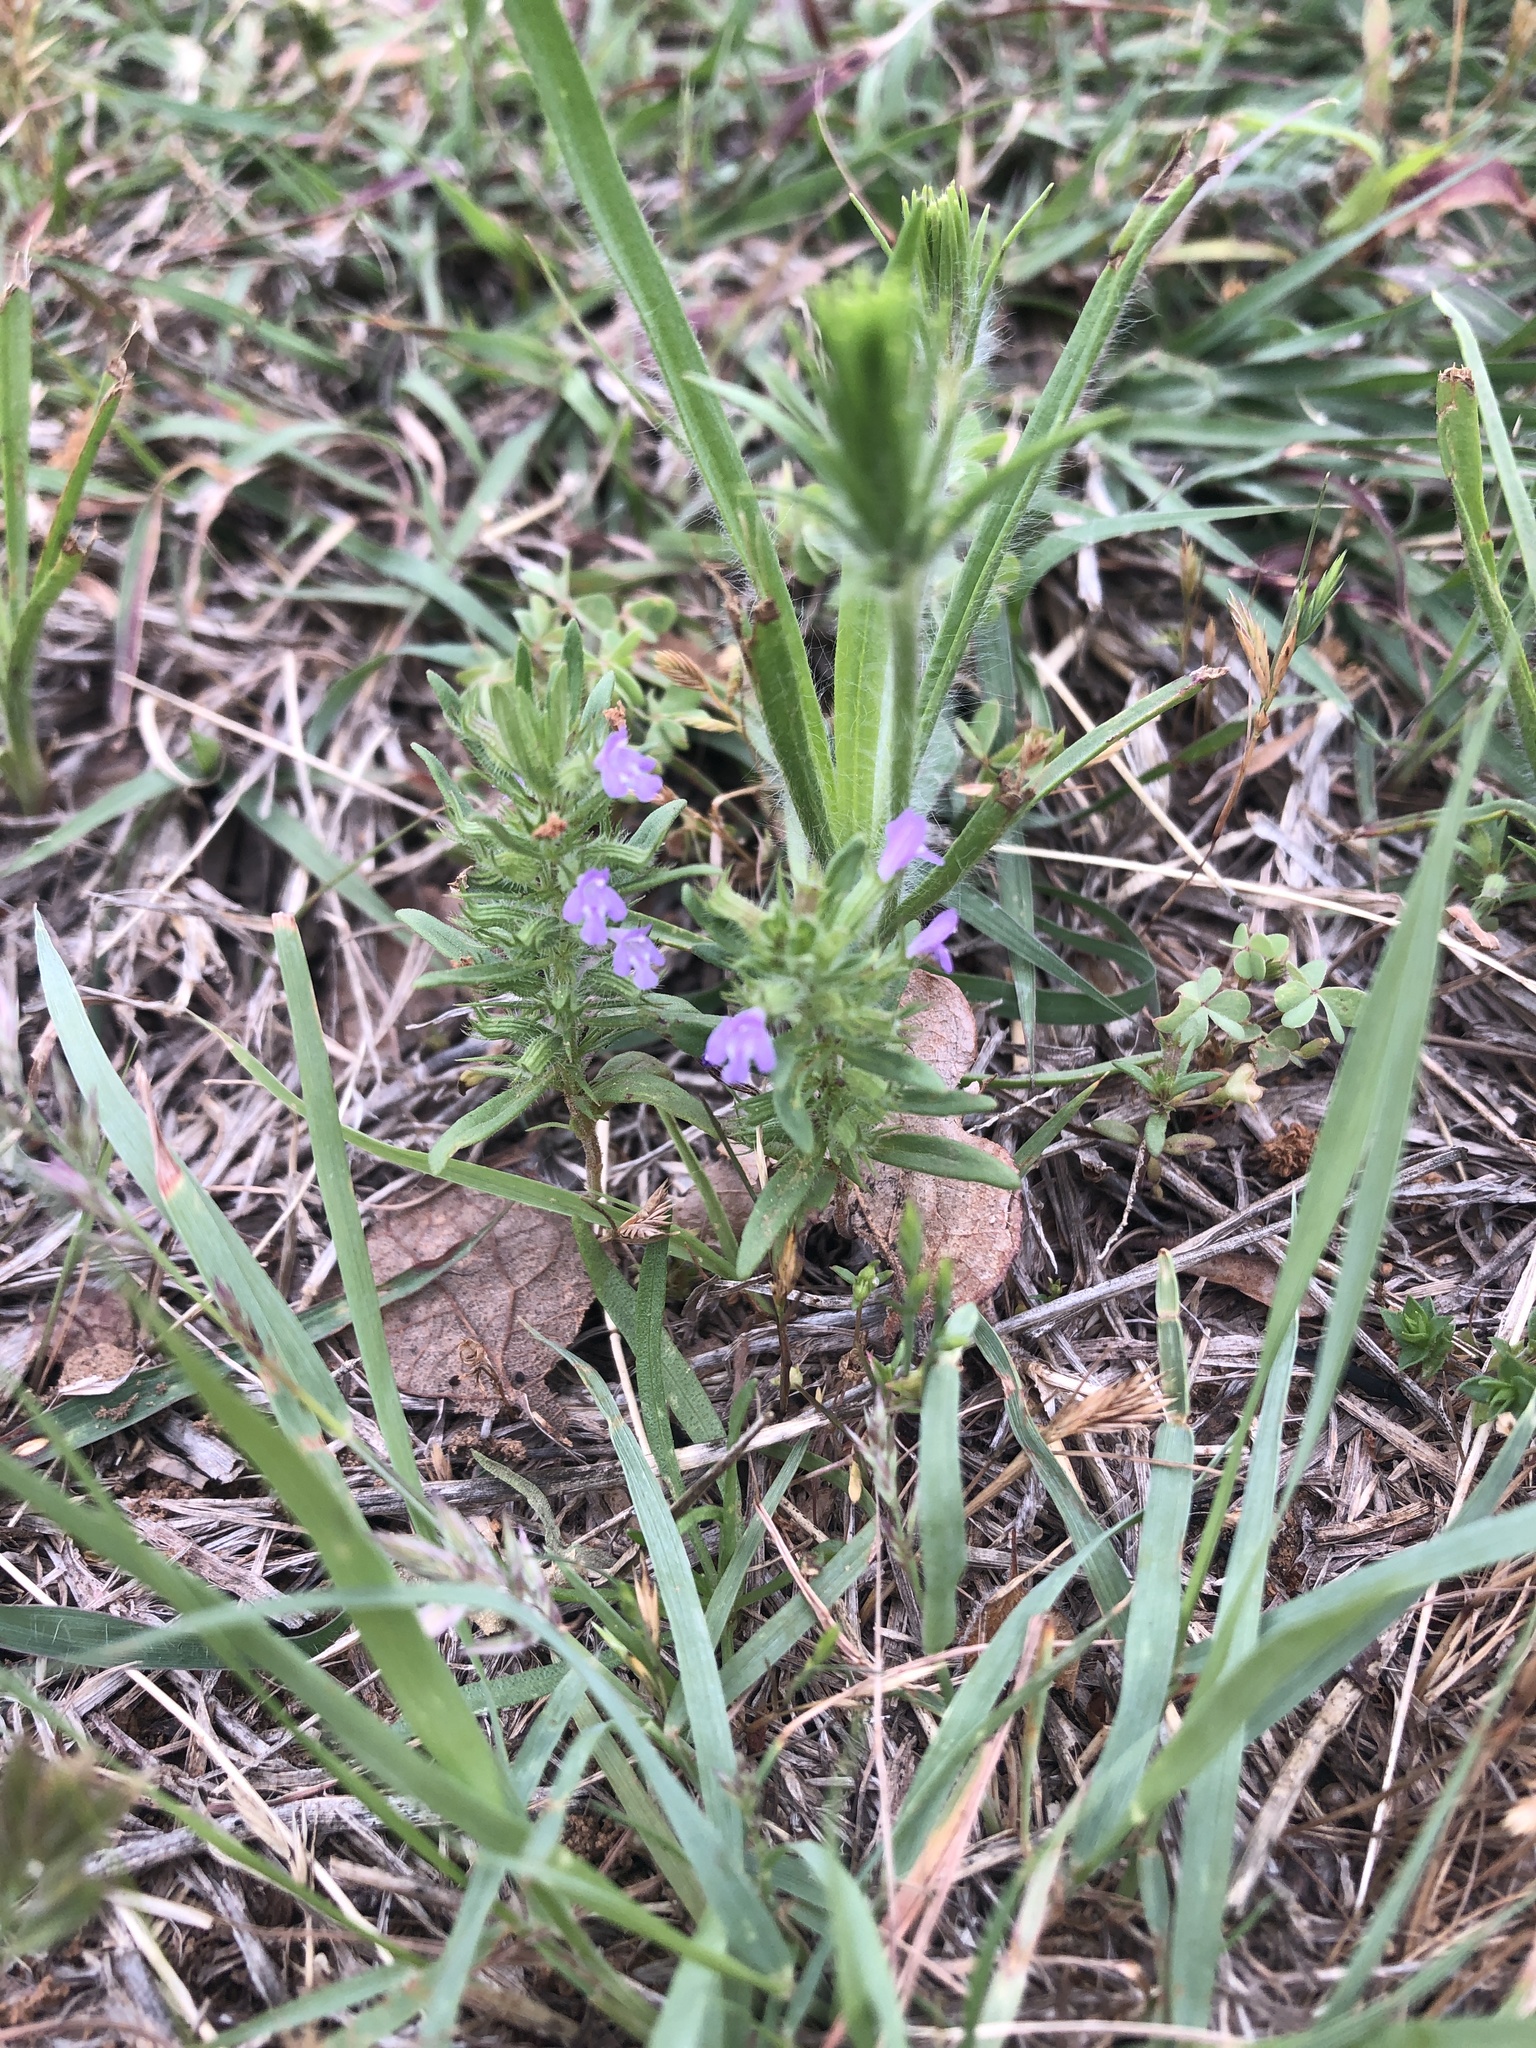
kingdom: Plantae
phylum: Tracheophyta
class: Magnoliopsida
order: Lamiales
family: Lamiaceae
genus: Hedeoma
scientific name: Hedeoma hispida
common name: Mock pennyroyal
